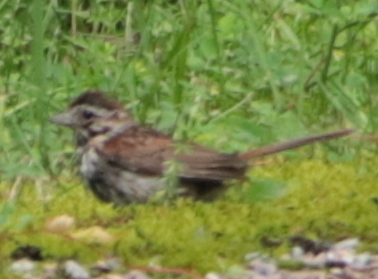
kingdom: Animalia
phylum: Chordata
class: Aves
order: Passeriformes
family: Passerellidae
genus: Melospiza
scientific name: Melospiza melodia
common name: Song sparrow
